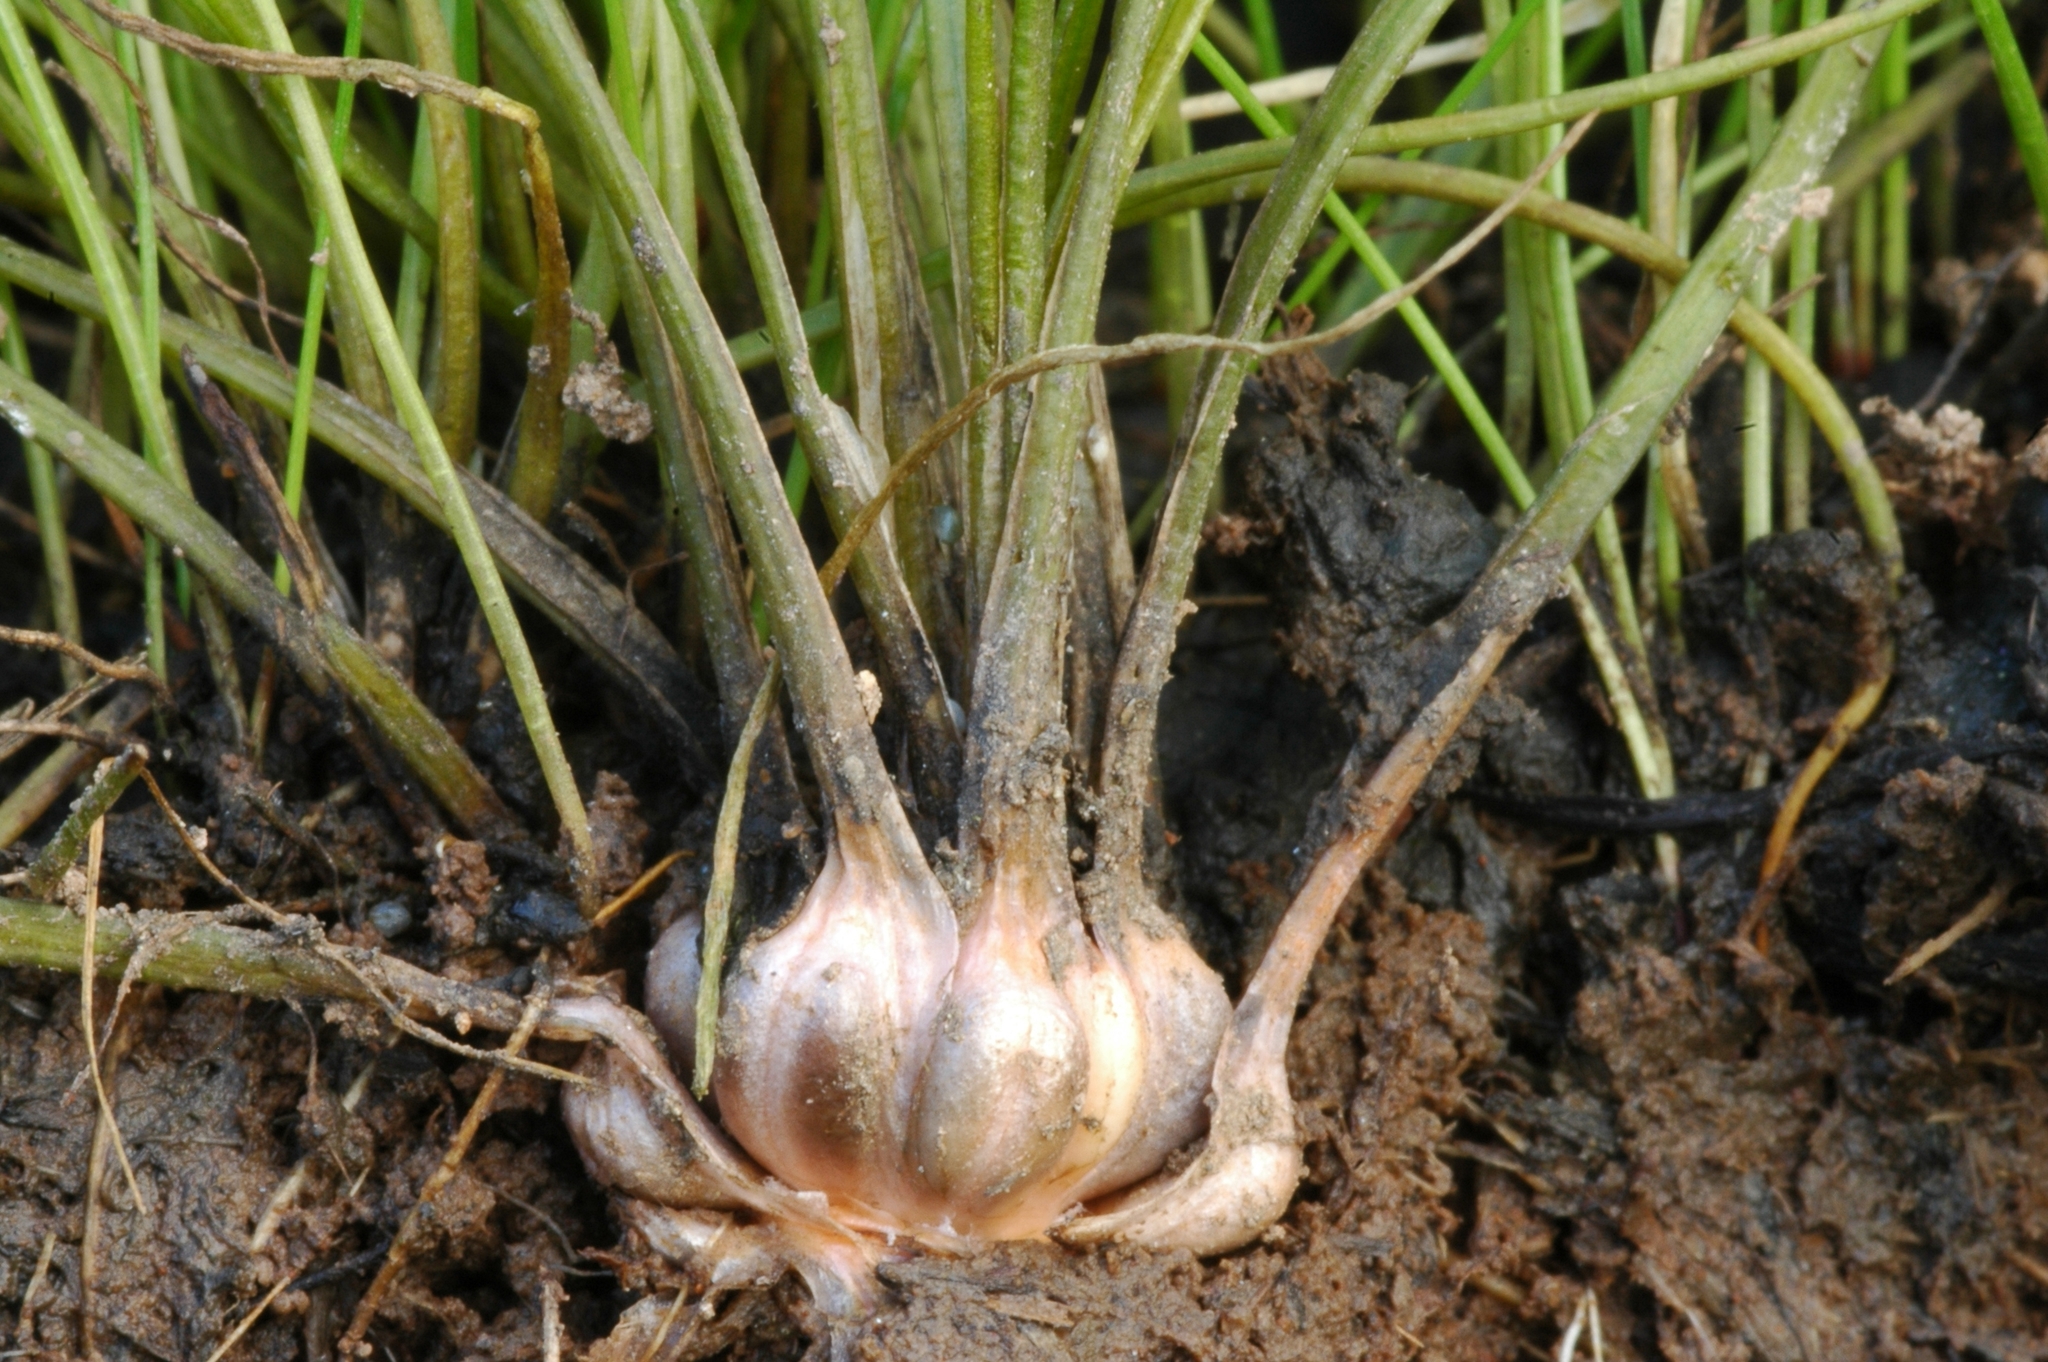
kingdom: Plantae
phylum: Tracheophyta
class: Lycopodiopsida
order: Isoetales
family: Isoetaceae
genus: Isoetes
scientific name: Isoetes howellii
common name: Howell's quillwort
